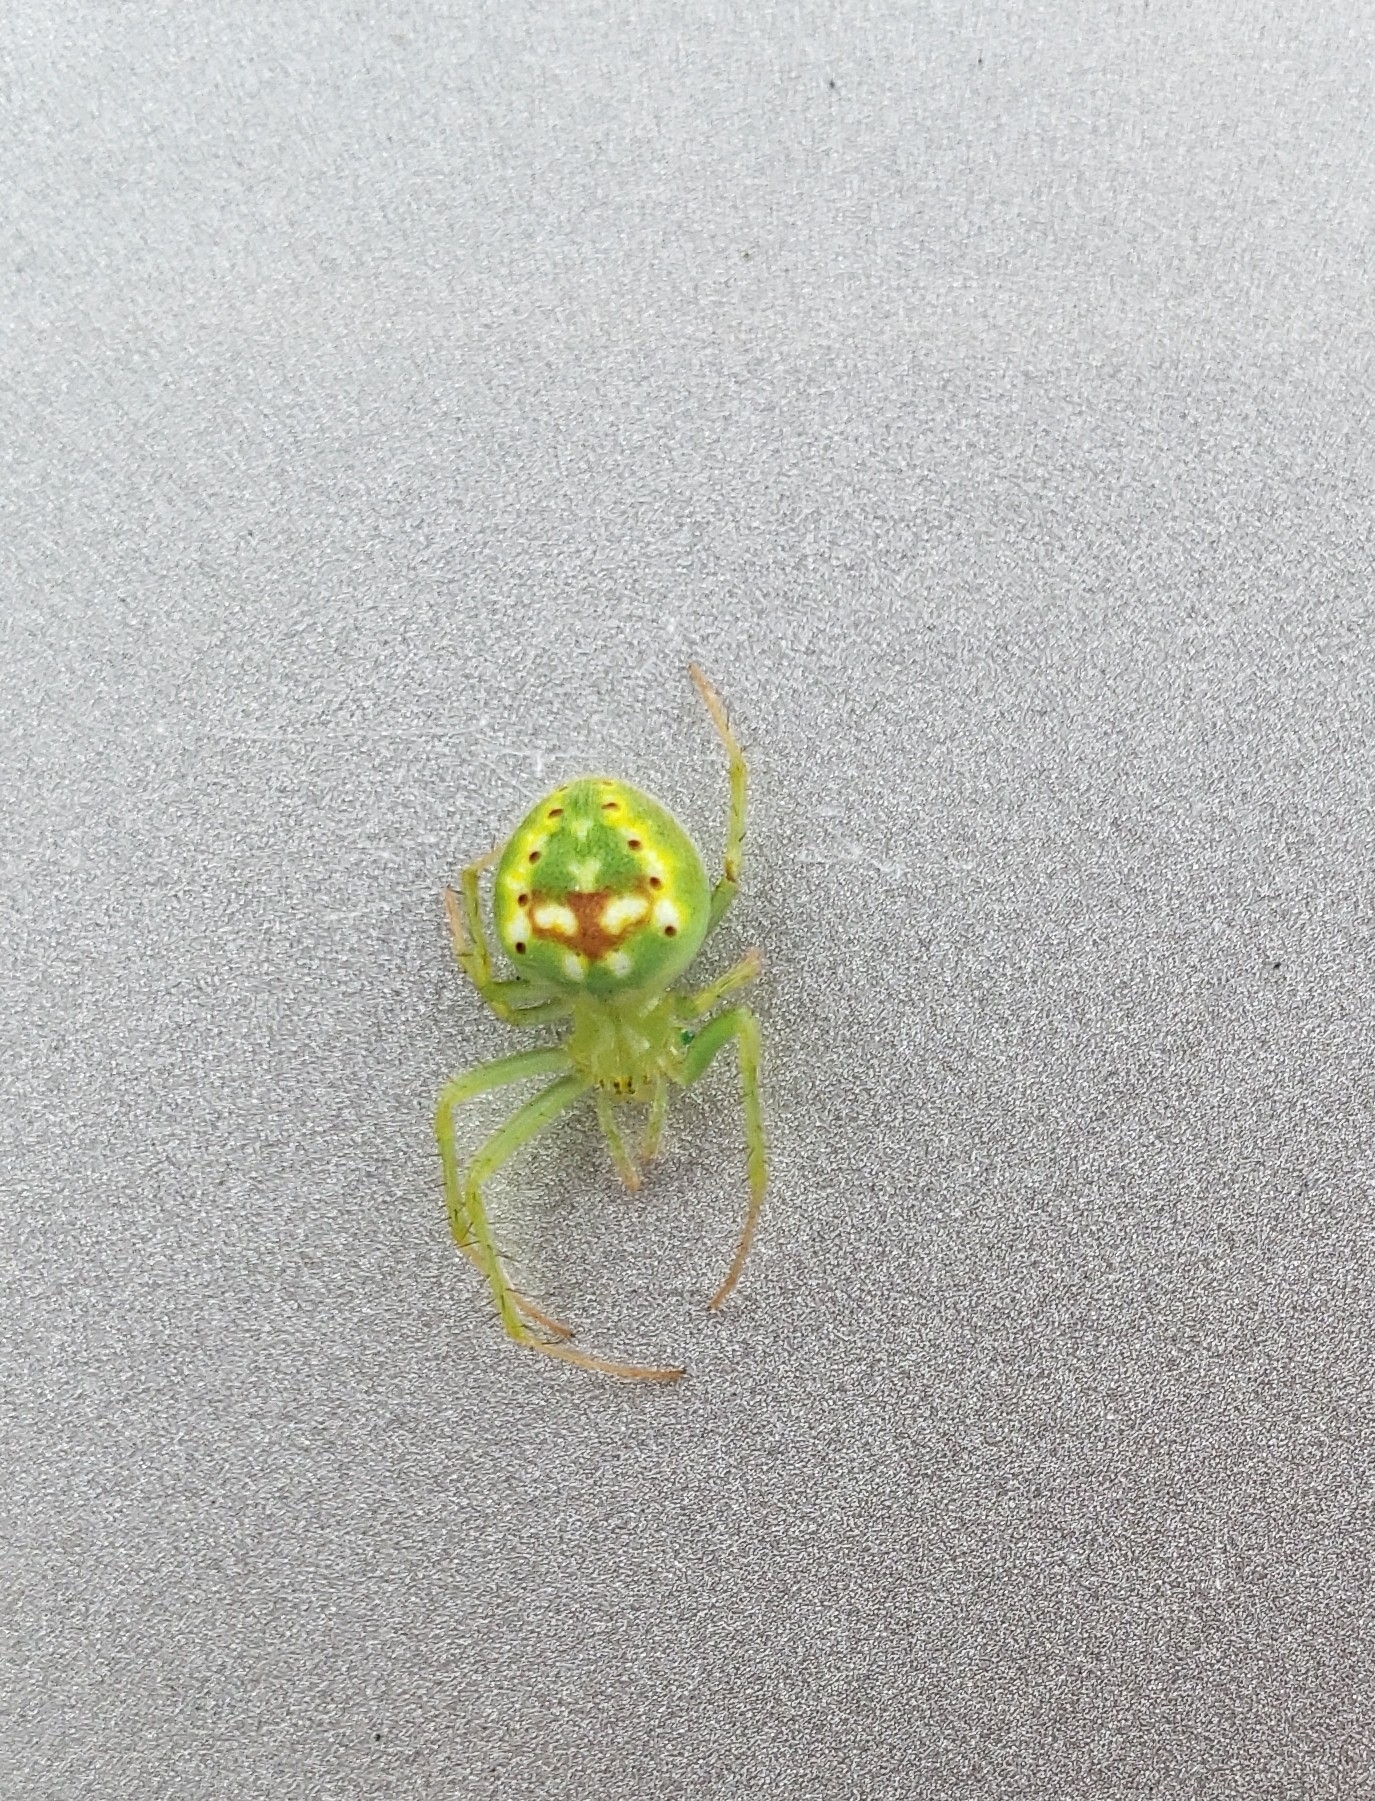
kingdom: Animalia
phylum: Arthropoda
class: Arachnida
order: Araneae
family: Araneidae
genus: Araneus
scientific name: Araneus cingulatus
